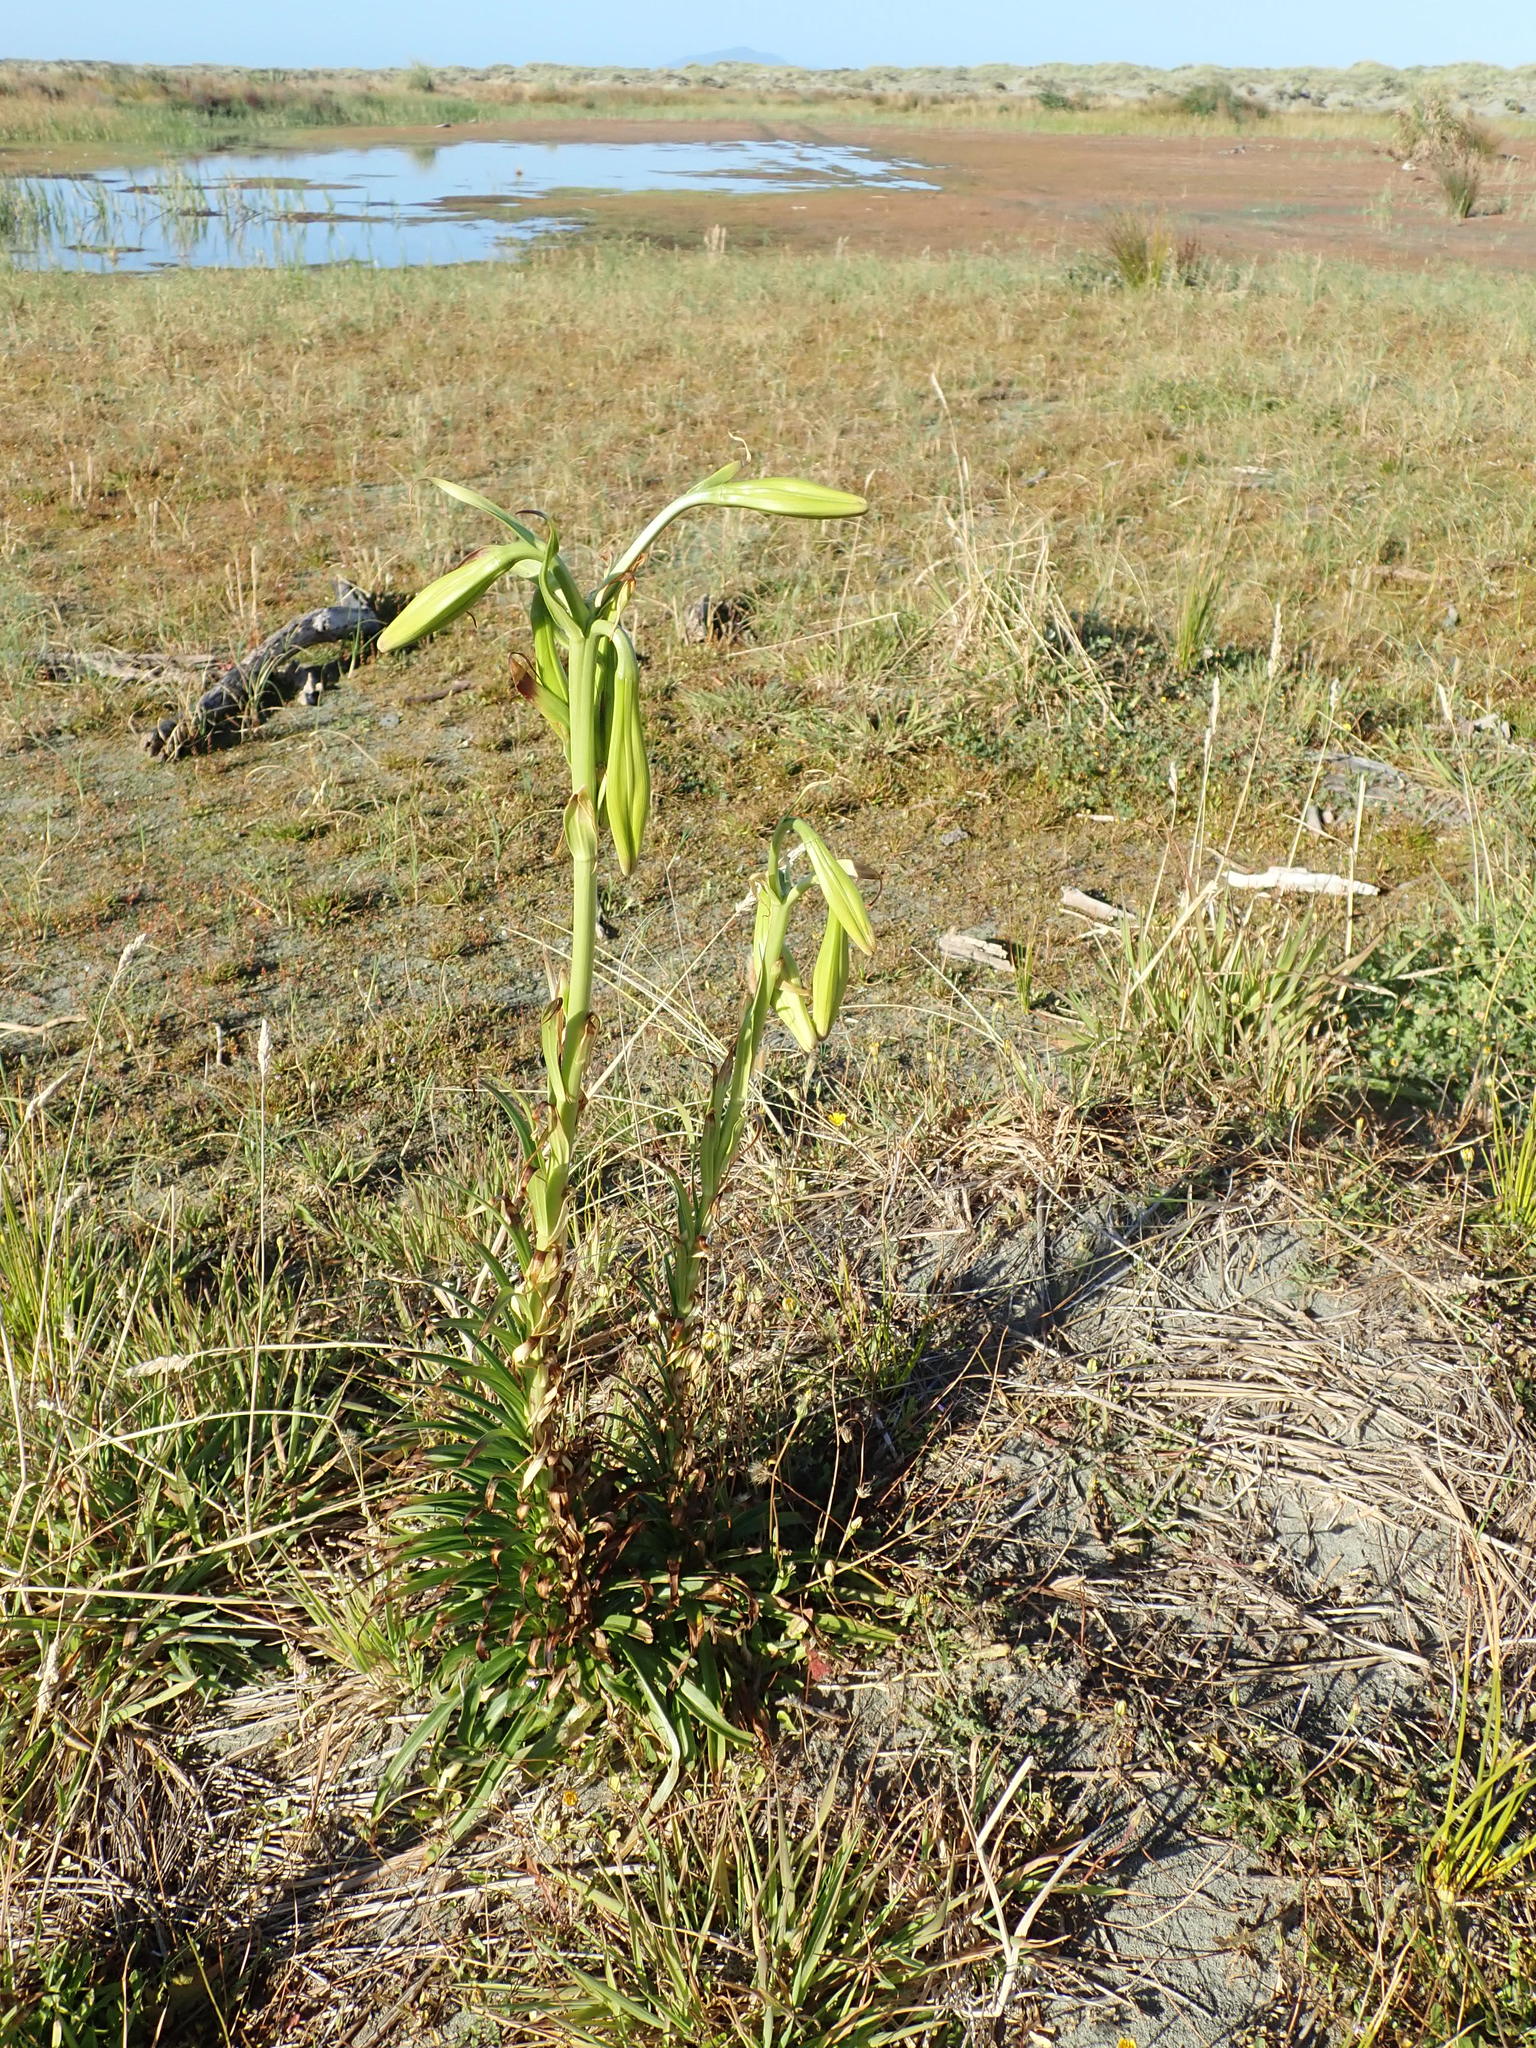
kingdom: Plantae
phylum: Tracheophyta
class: Liliopsida
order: Liliales
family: Liliaceae
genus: Lilium
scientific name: Lilium formosanum
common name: Formosa lily
